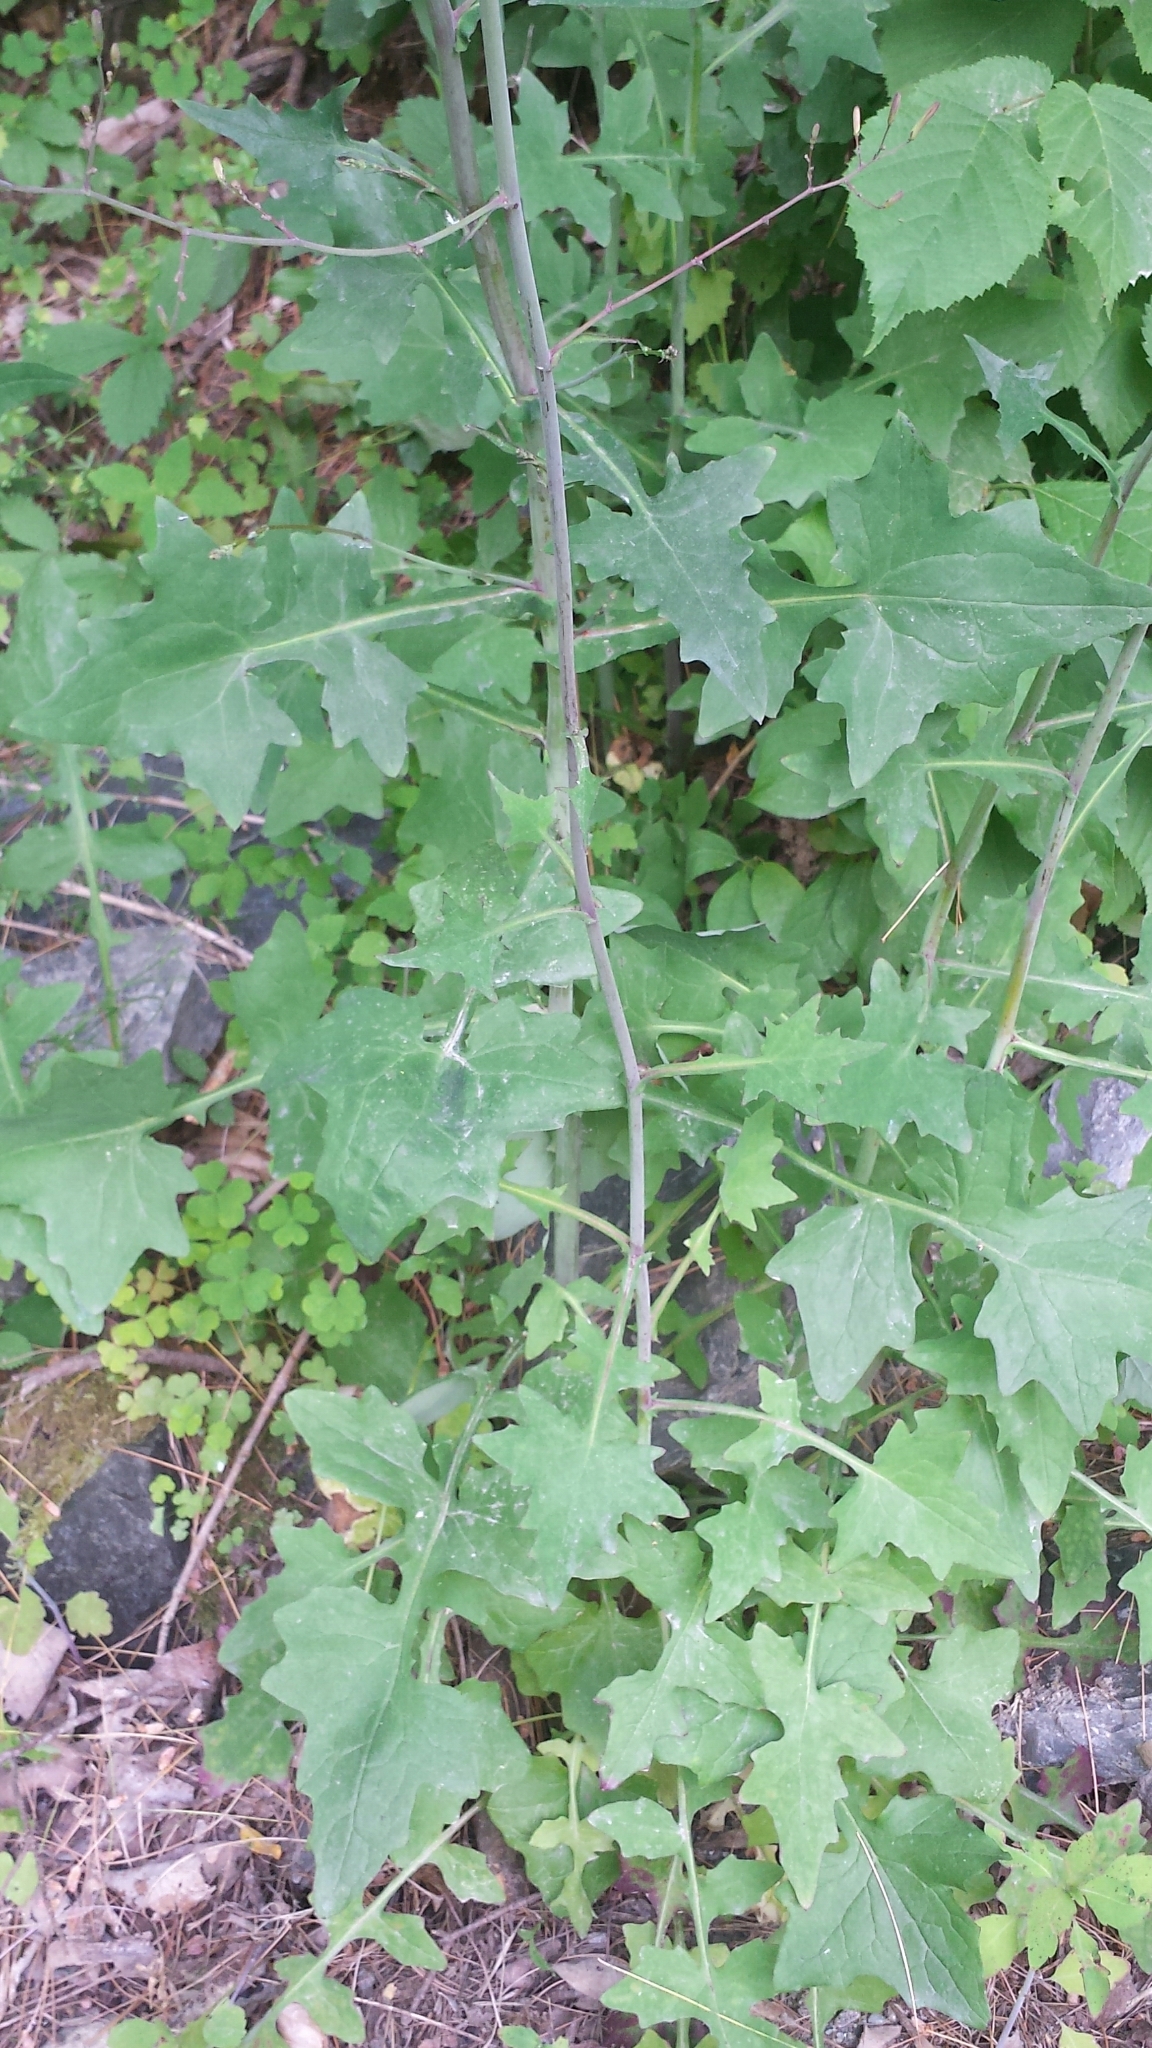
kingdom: Plantae
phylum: Tracheophyta
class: Magnoliopsida
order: Asterales
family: Asteraceae
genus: Mycelis
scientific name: Mycelis muralis
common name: Wall lettuce
